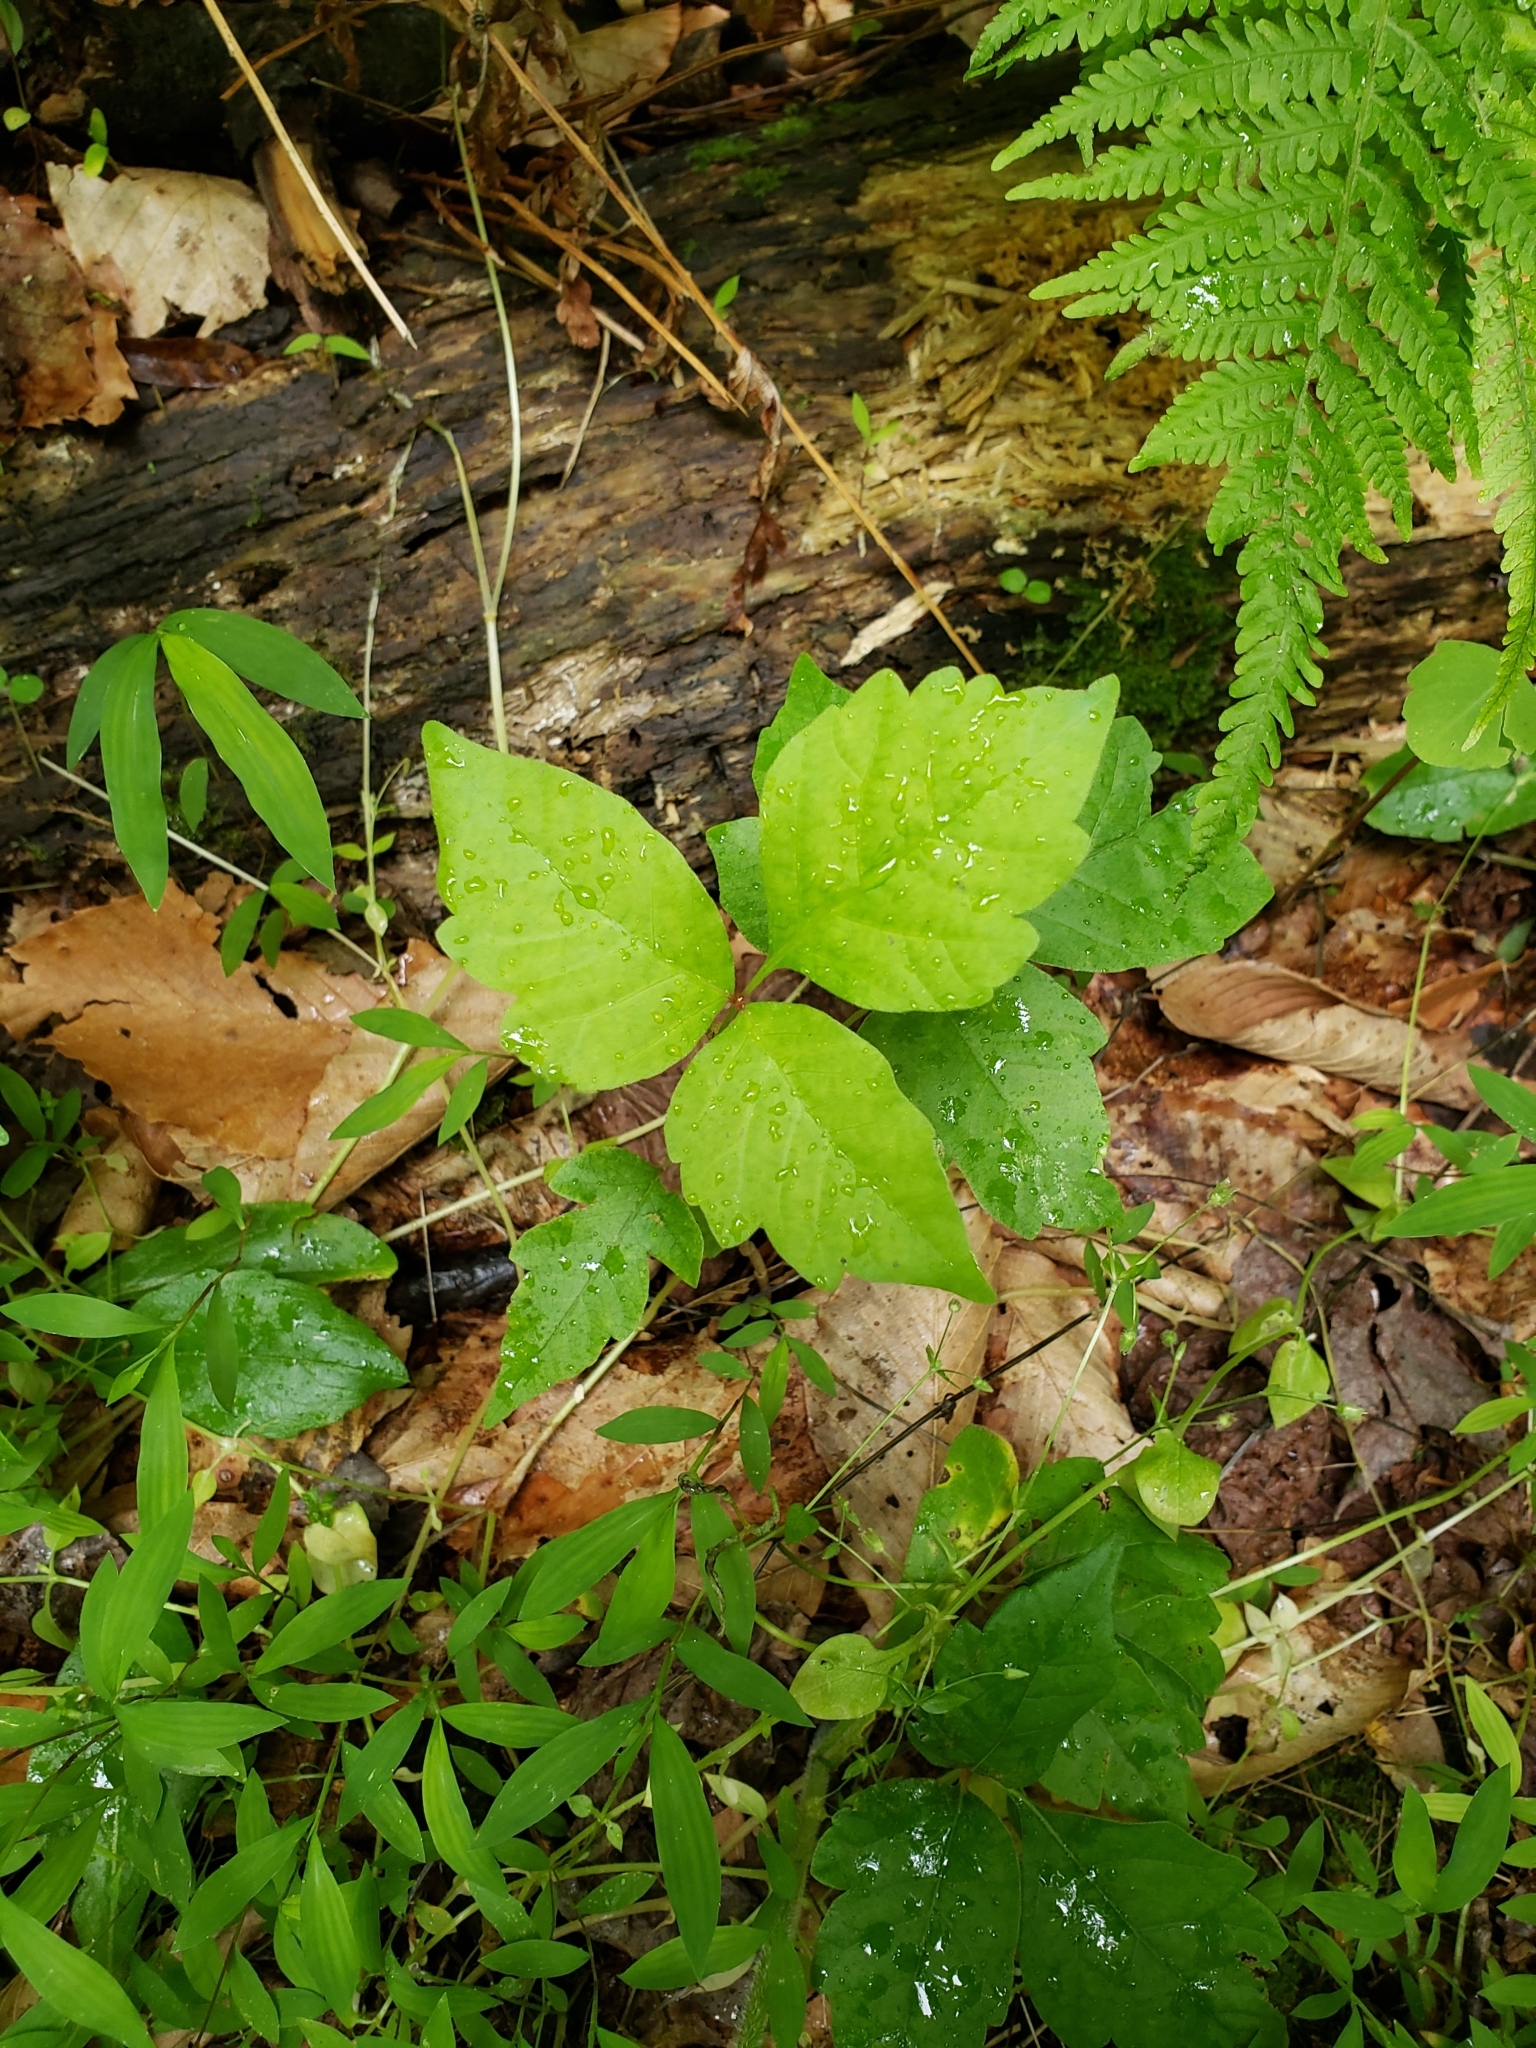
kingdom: Plantae
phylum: Tracheophyta
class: Magnoliopsida
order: Sapindales
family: Anacardiaceae
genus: Toxicodendron
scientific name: Toxicodendron radicans
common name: Poison ivy
